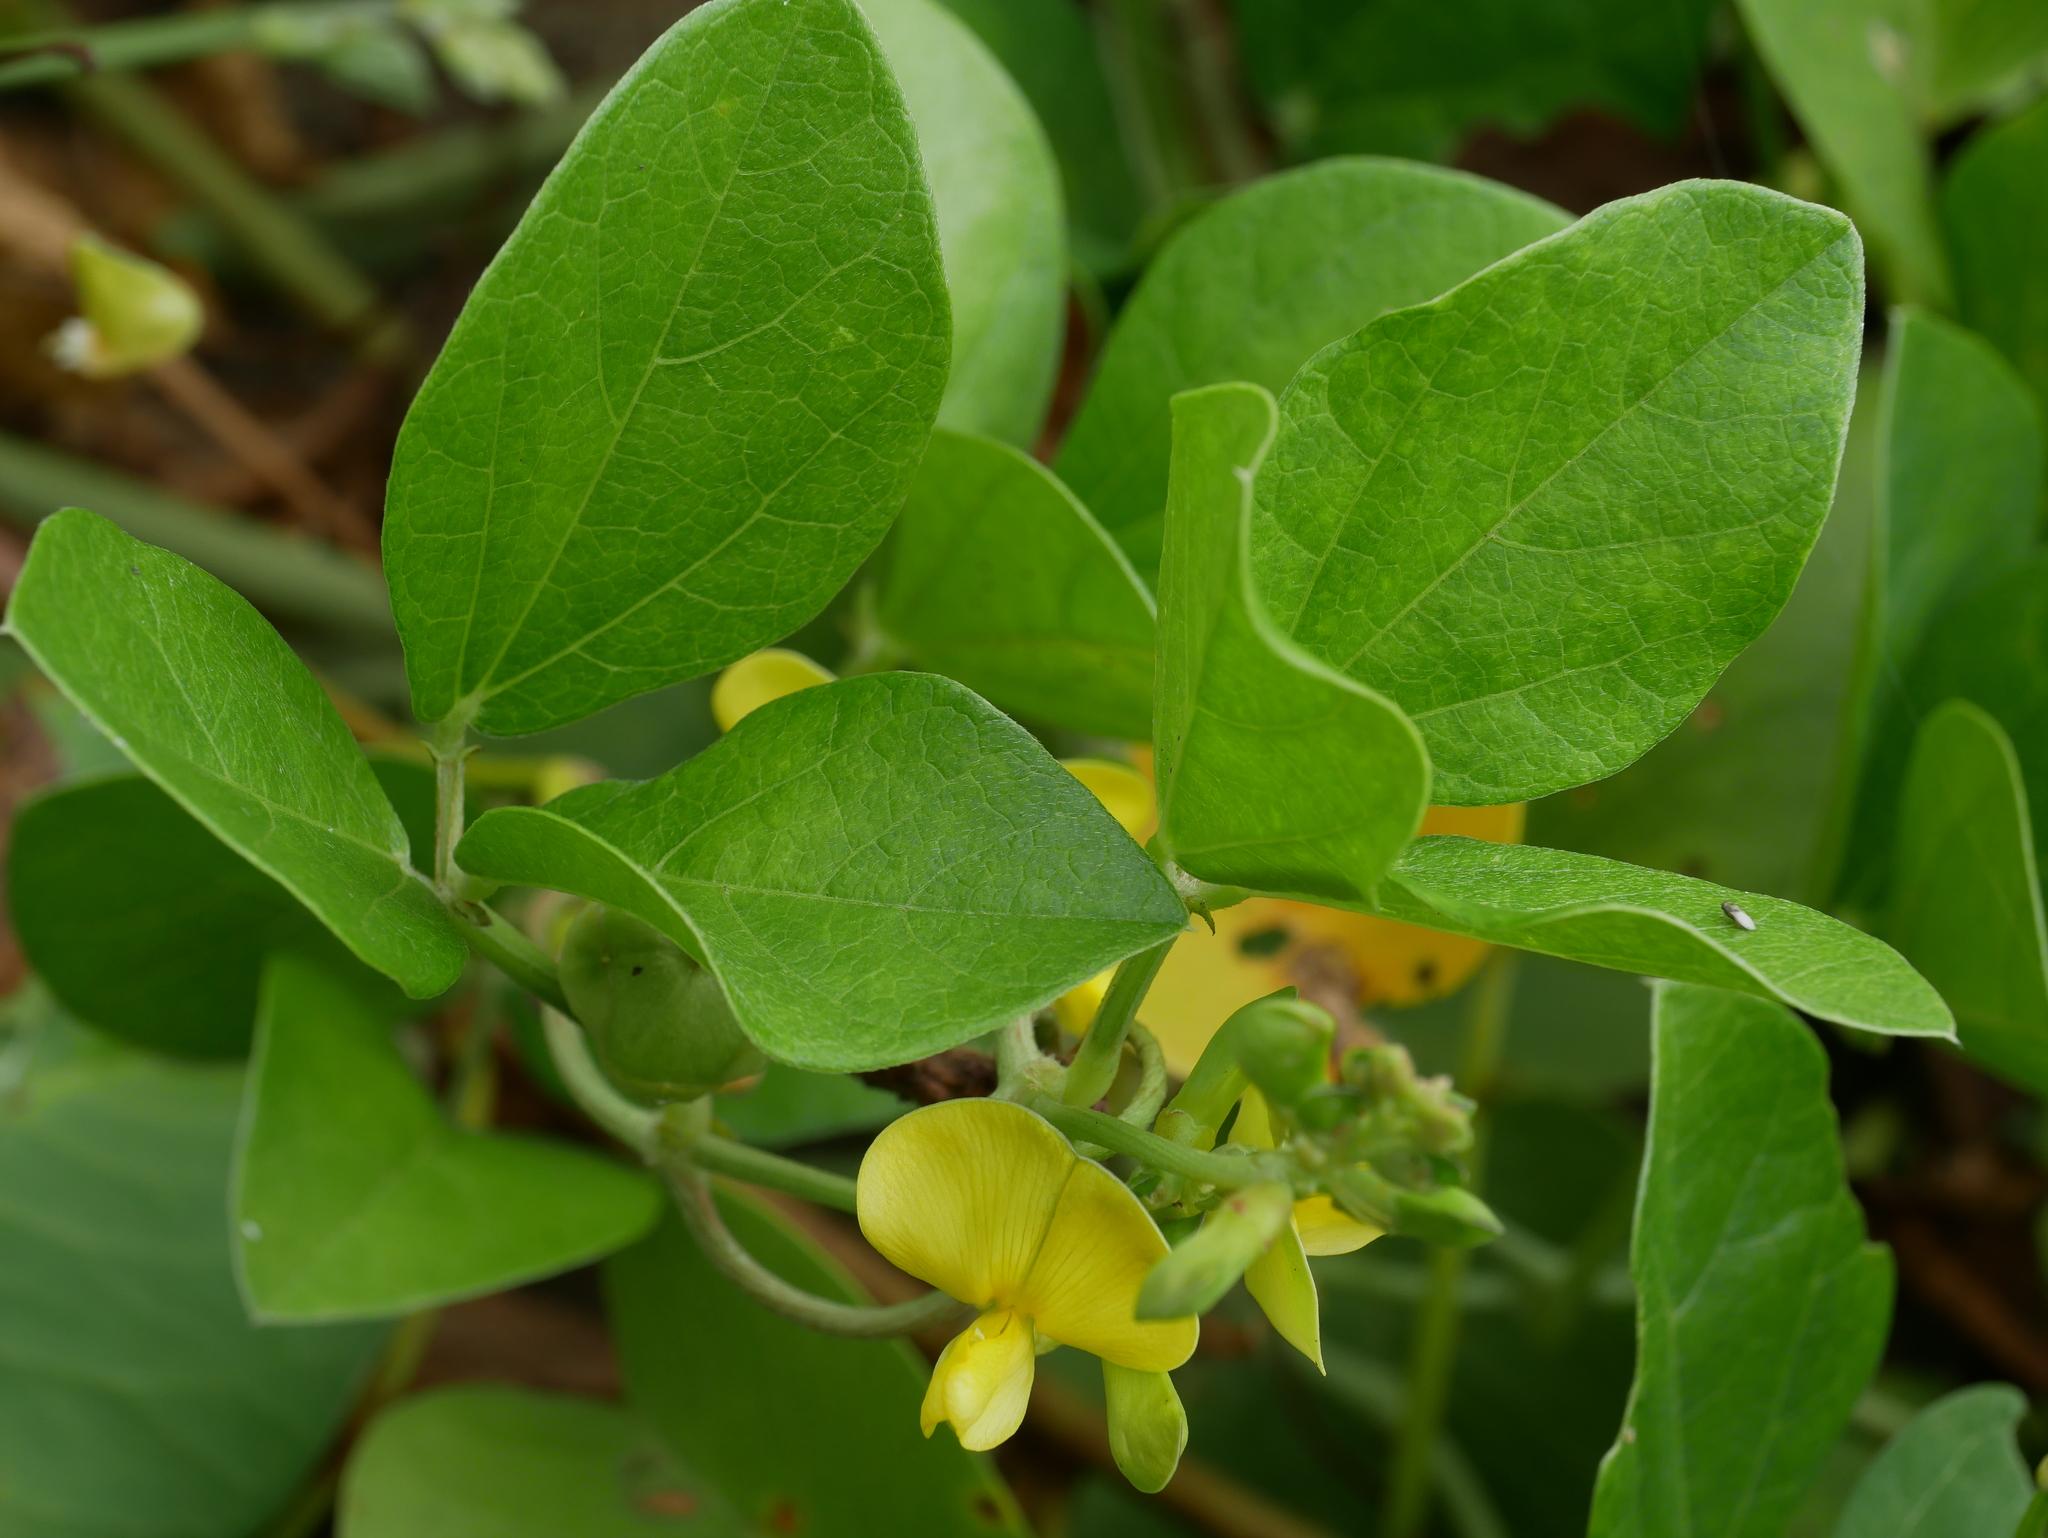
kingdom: Plantae
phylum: Tracheophyta
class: Magnoliopsida
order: Fabales
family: Fabaceae
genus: Vigna
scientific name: Vigna marina
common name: Dune-bean
